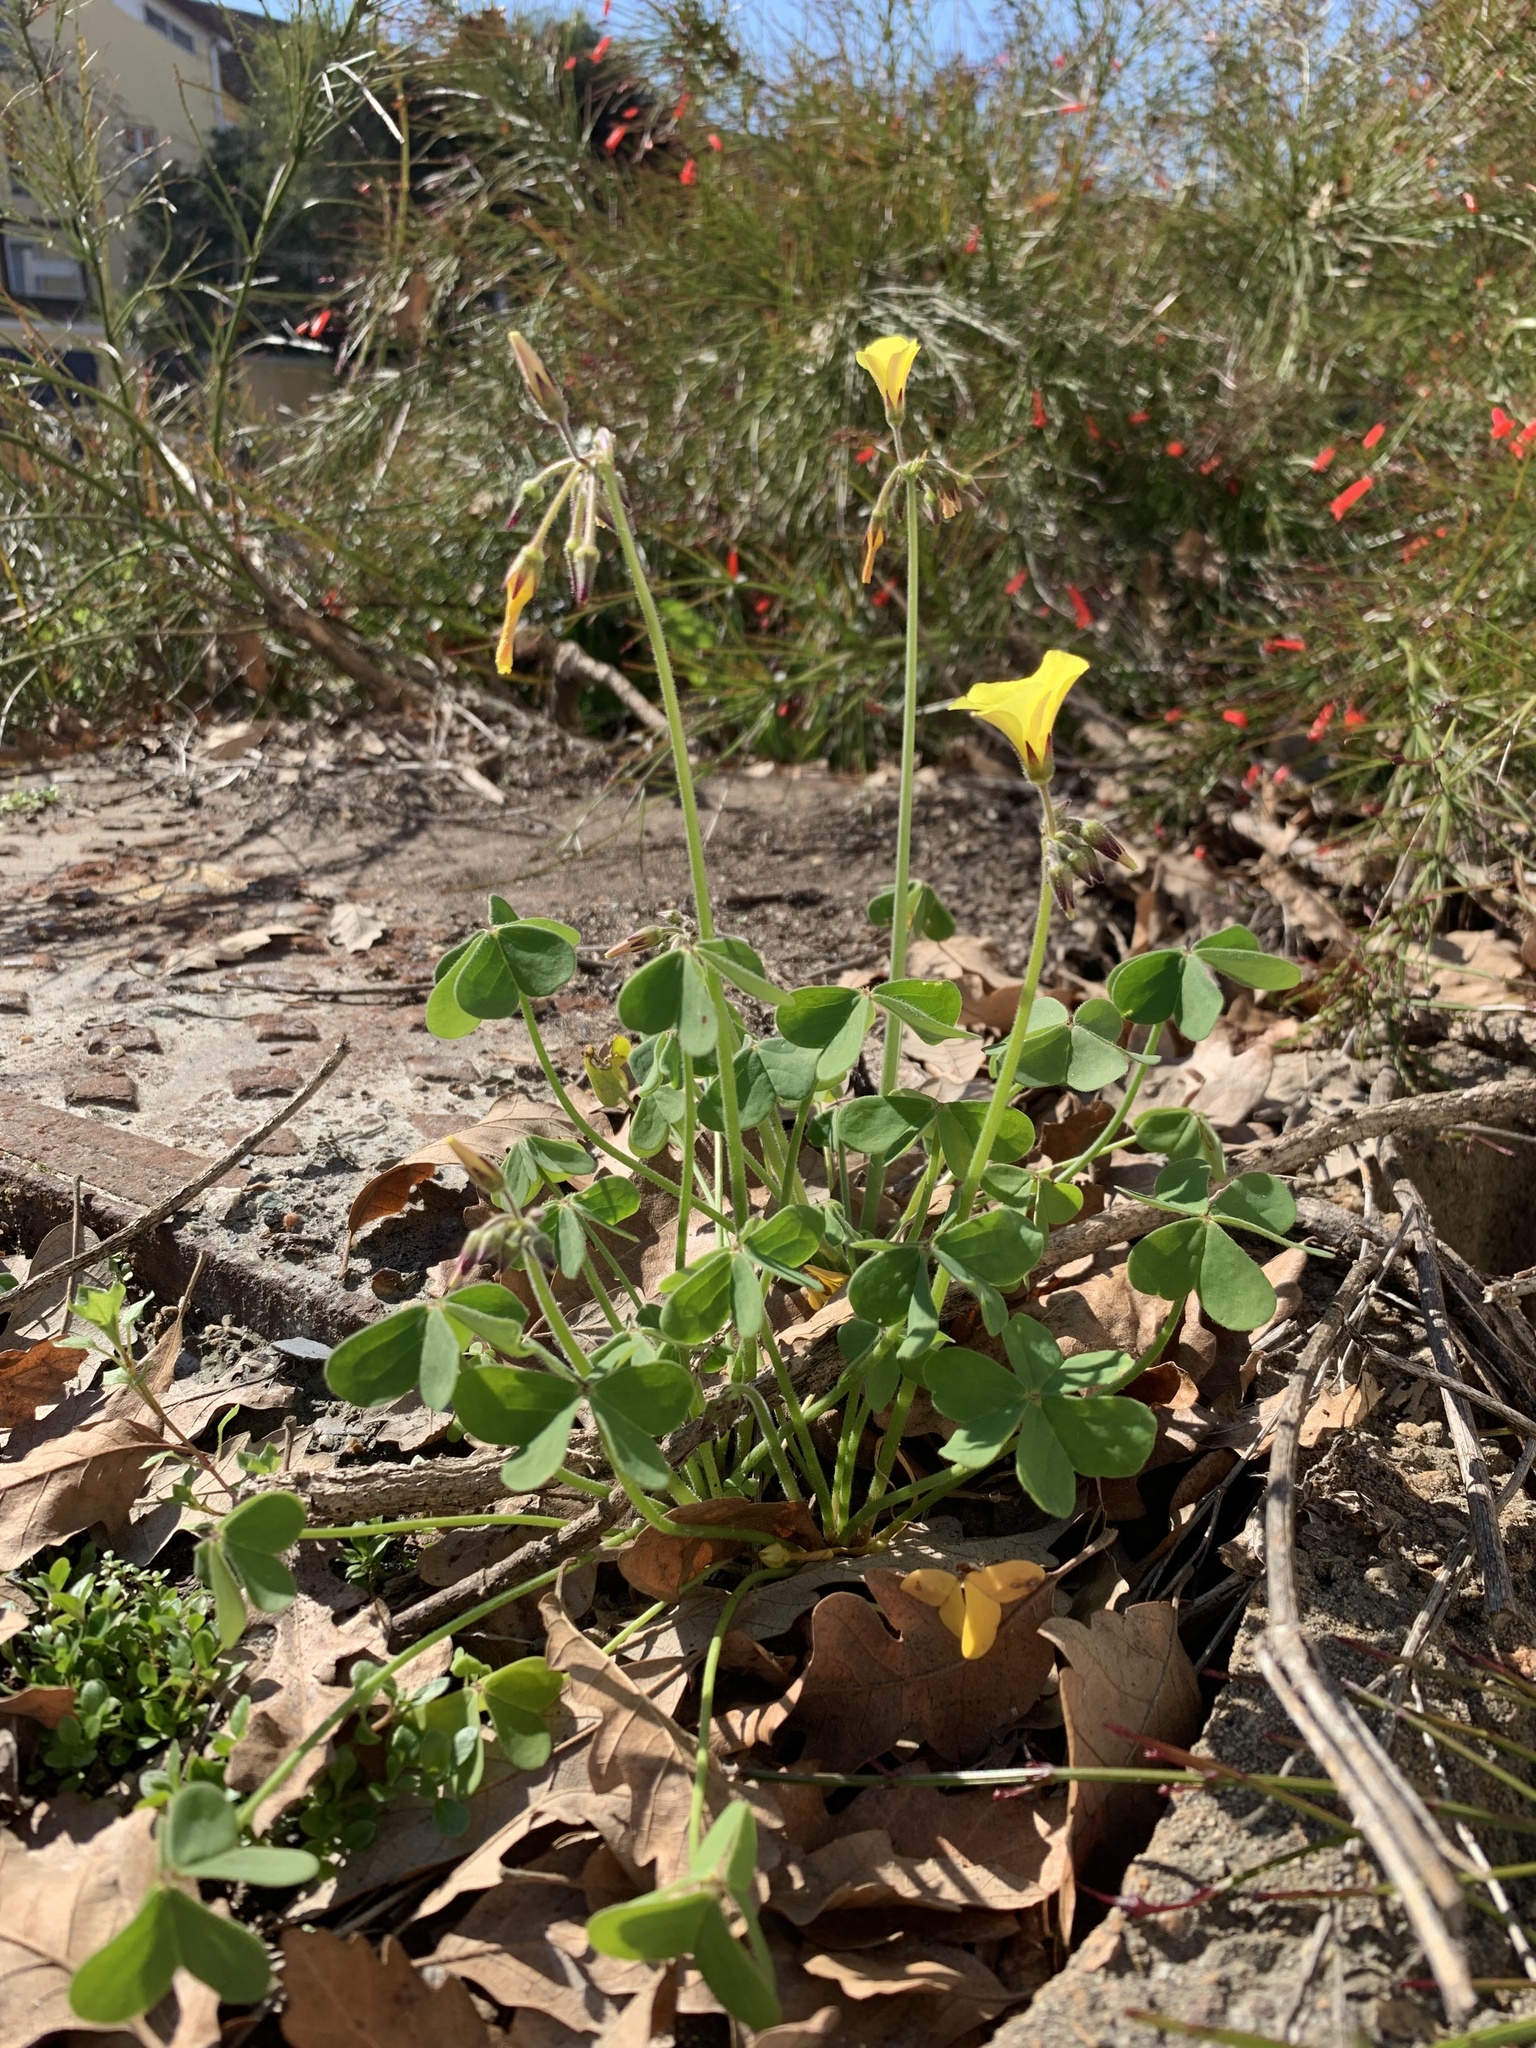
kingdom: Plantae
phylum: Tracheophyta
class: Magnoliopsida
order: Oxalidales
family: Oxalidaceae
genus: Oxalis
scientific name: Oxalis pes-caprae
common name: Bermuda-buttercup
